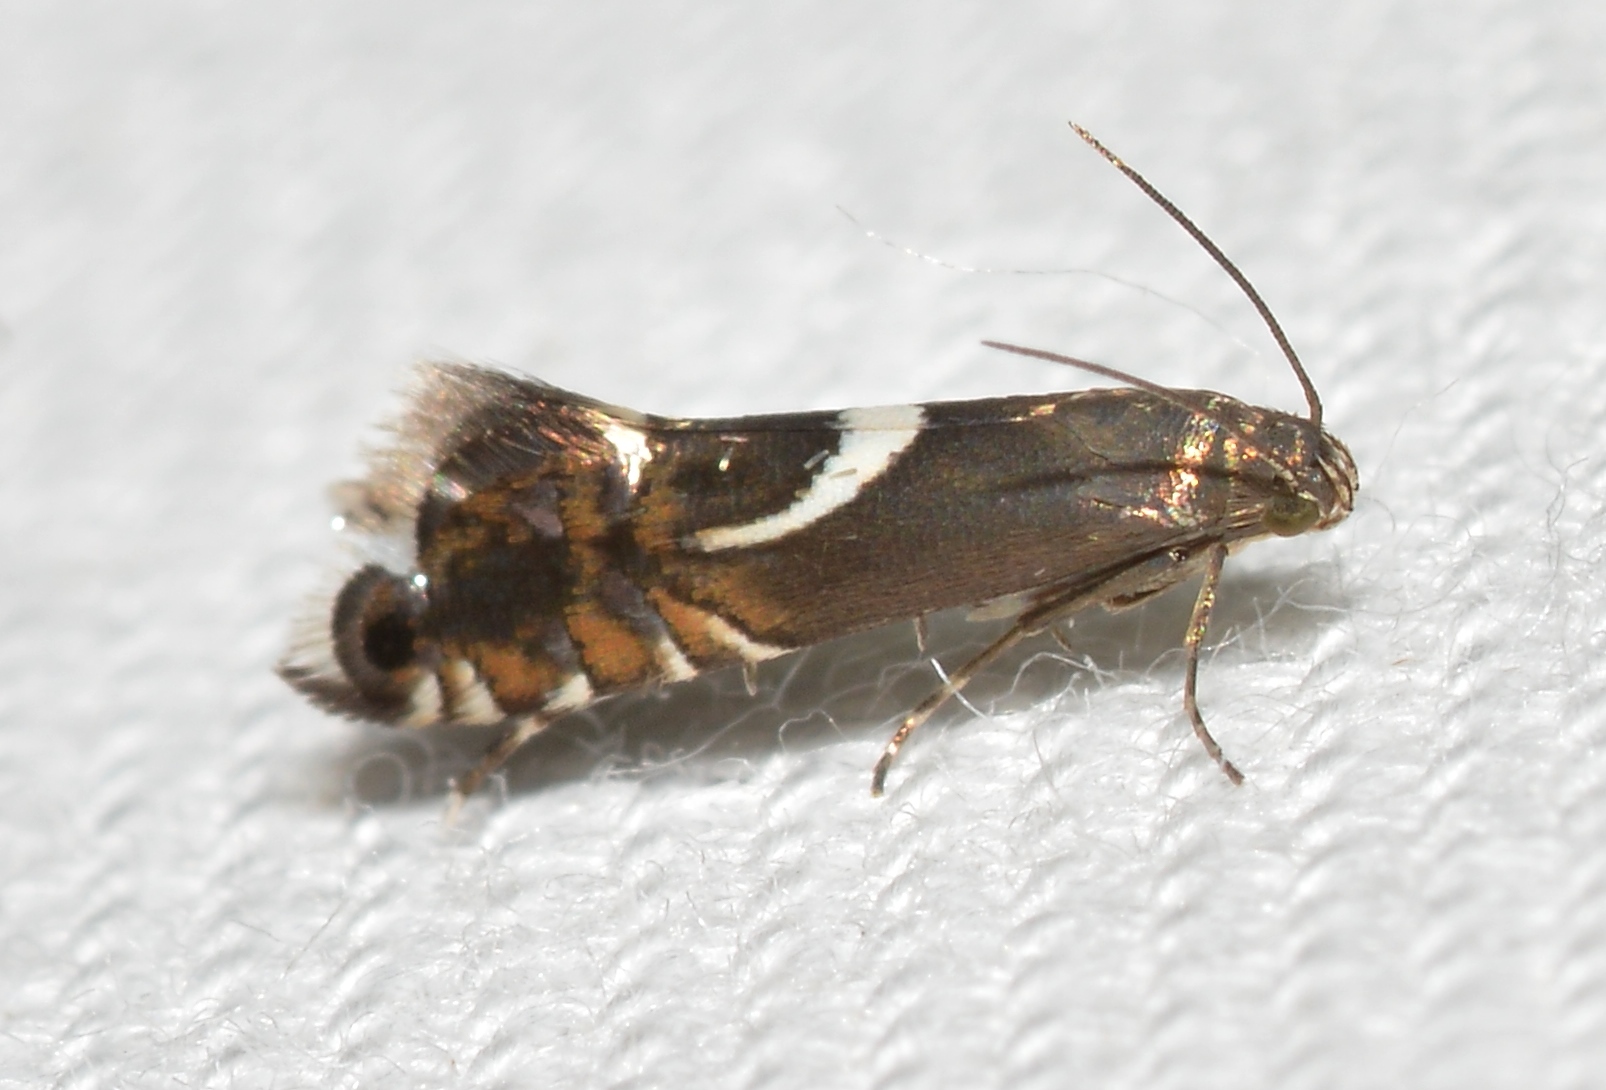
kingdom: Animalia
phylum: Arthropoda
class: Insecta
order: Lepidoptera
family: Glyphipterigidae
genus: Glyphipterix
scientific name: Glyphipterix Diploschizia impigritella
